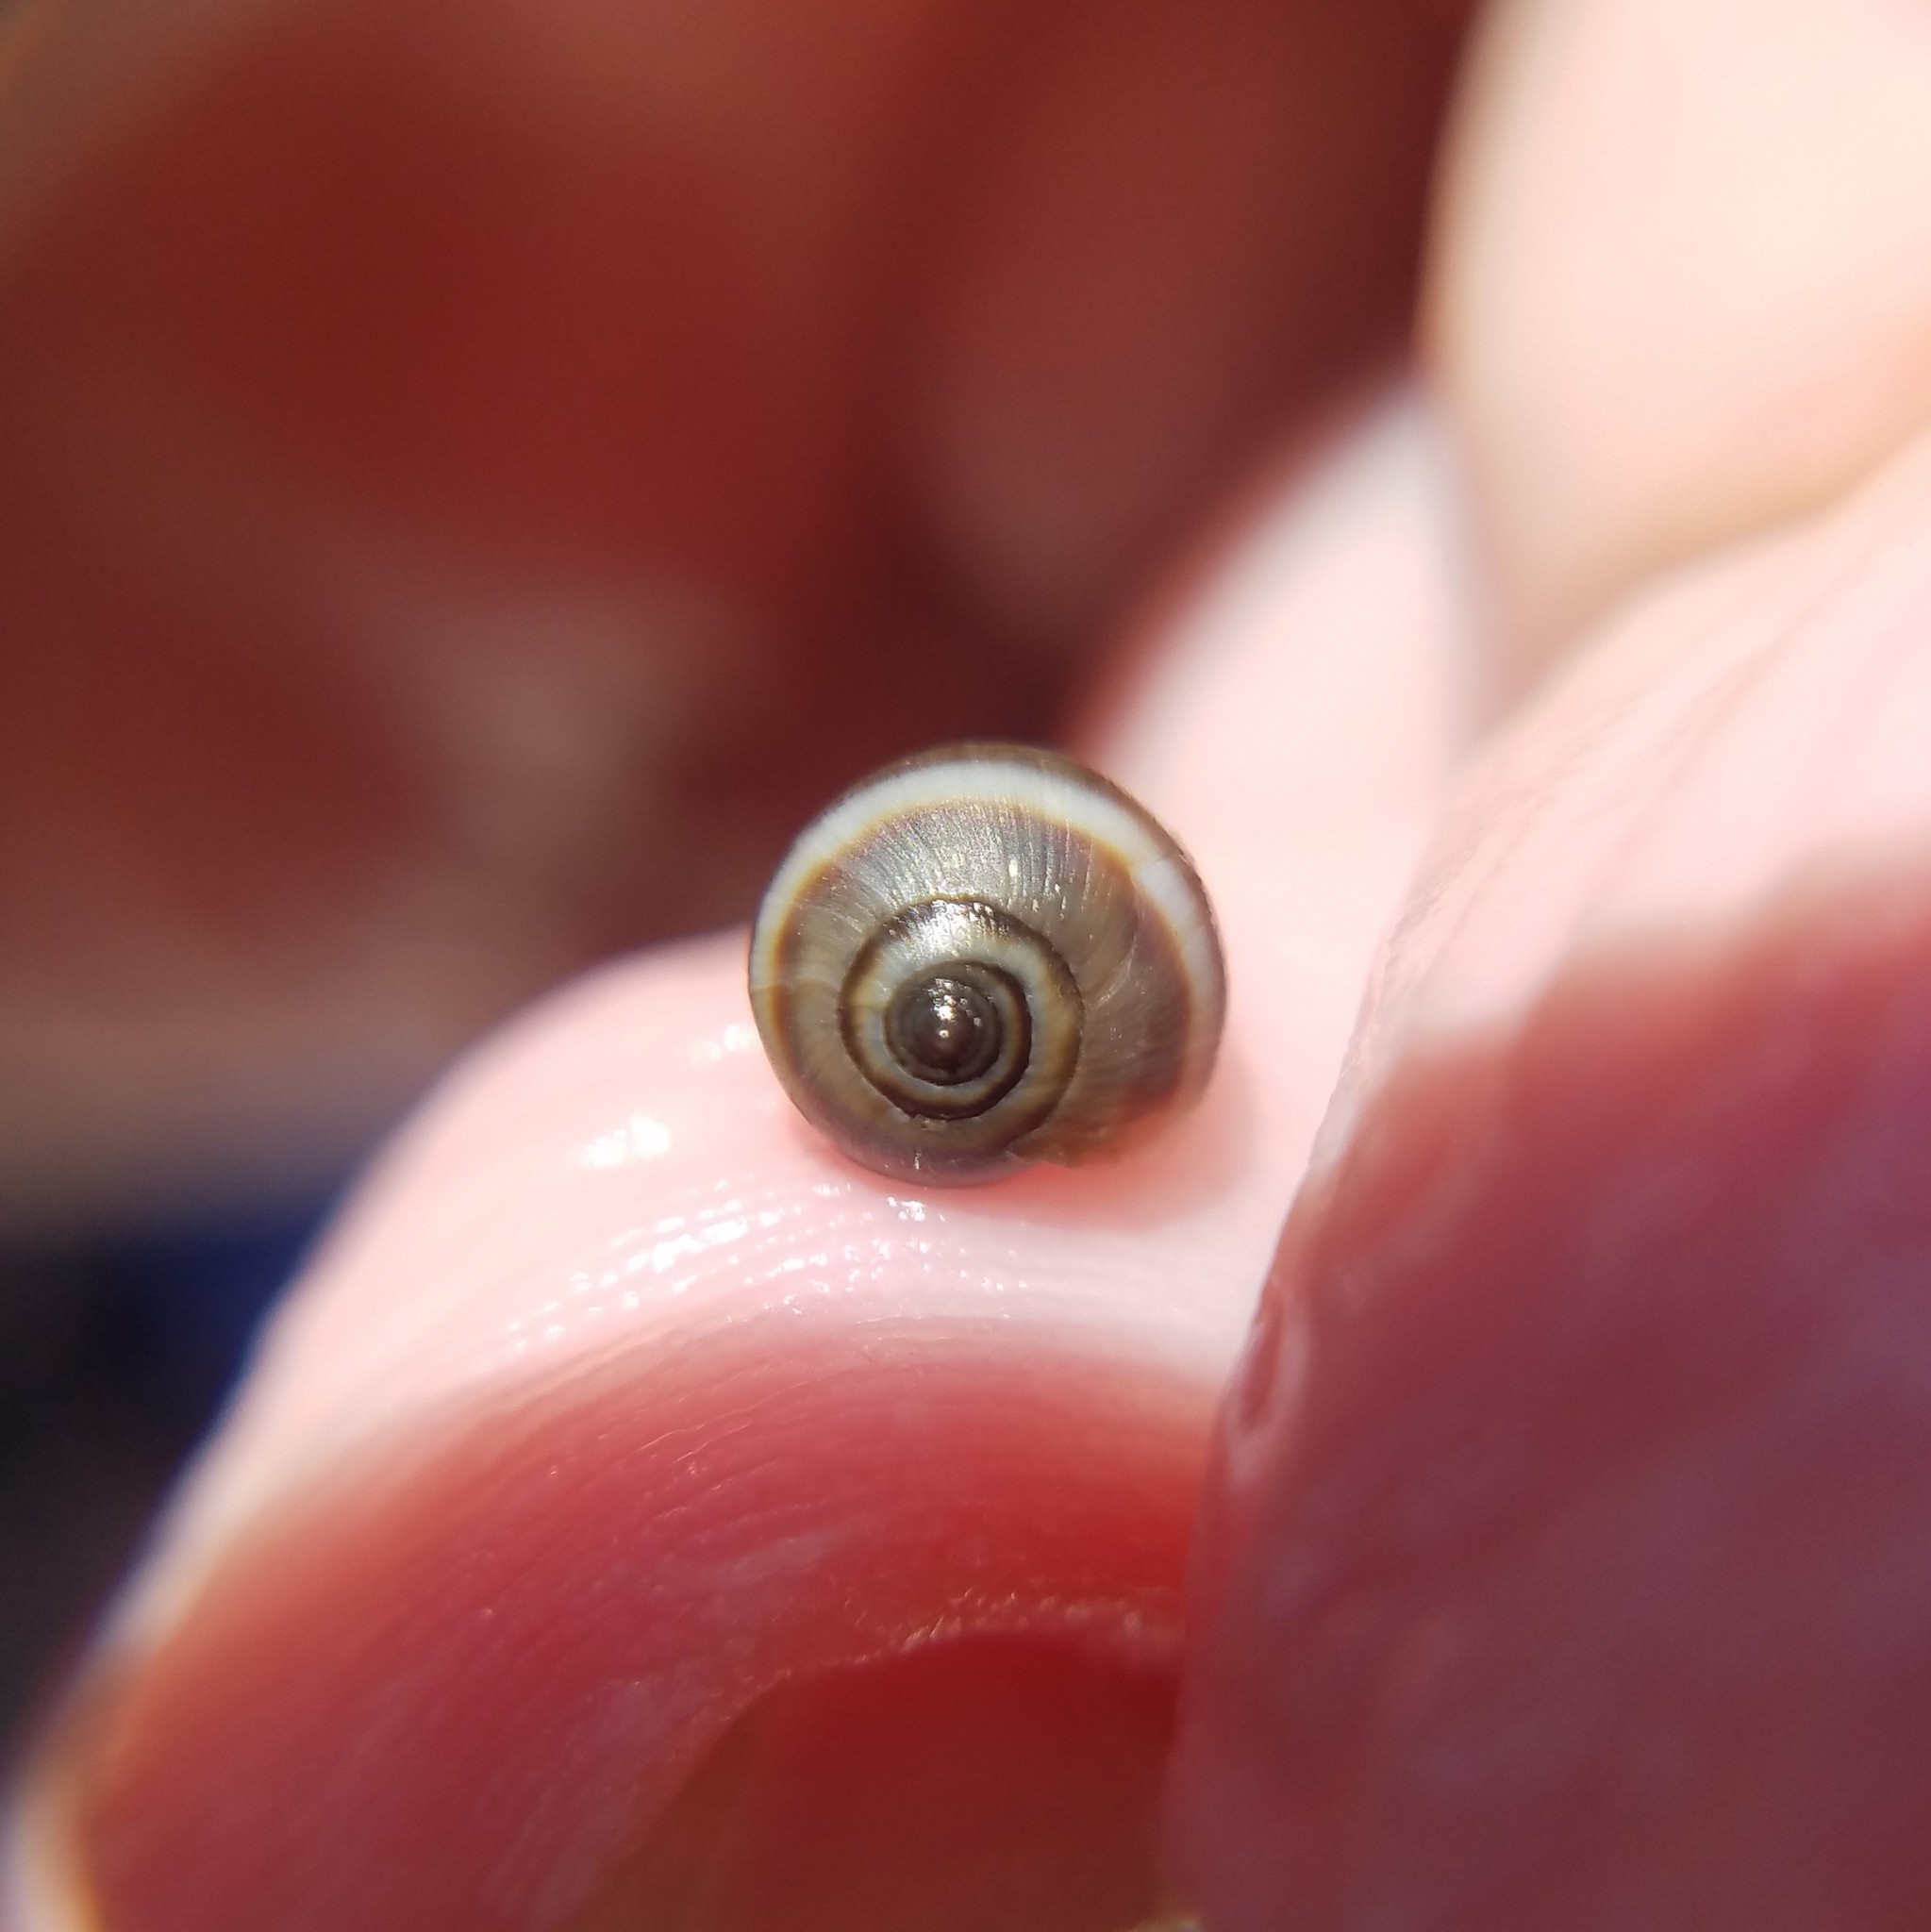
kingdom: Animalia
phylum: Mollusca
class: Gastropoda
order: Ellobiida
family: Ellobiidae
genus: Melampus
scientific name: Melampus coffea
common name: Coffee bean snail
